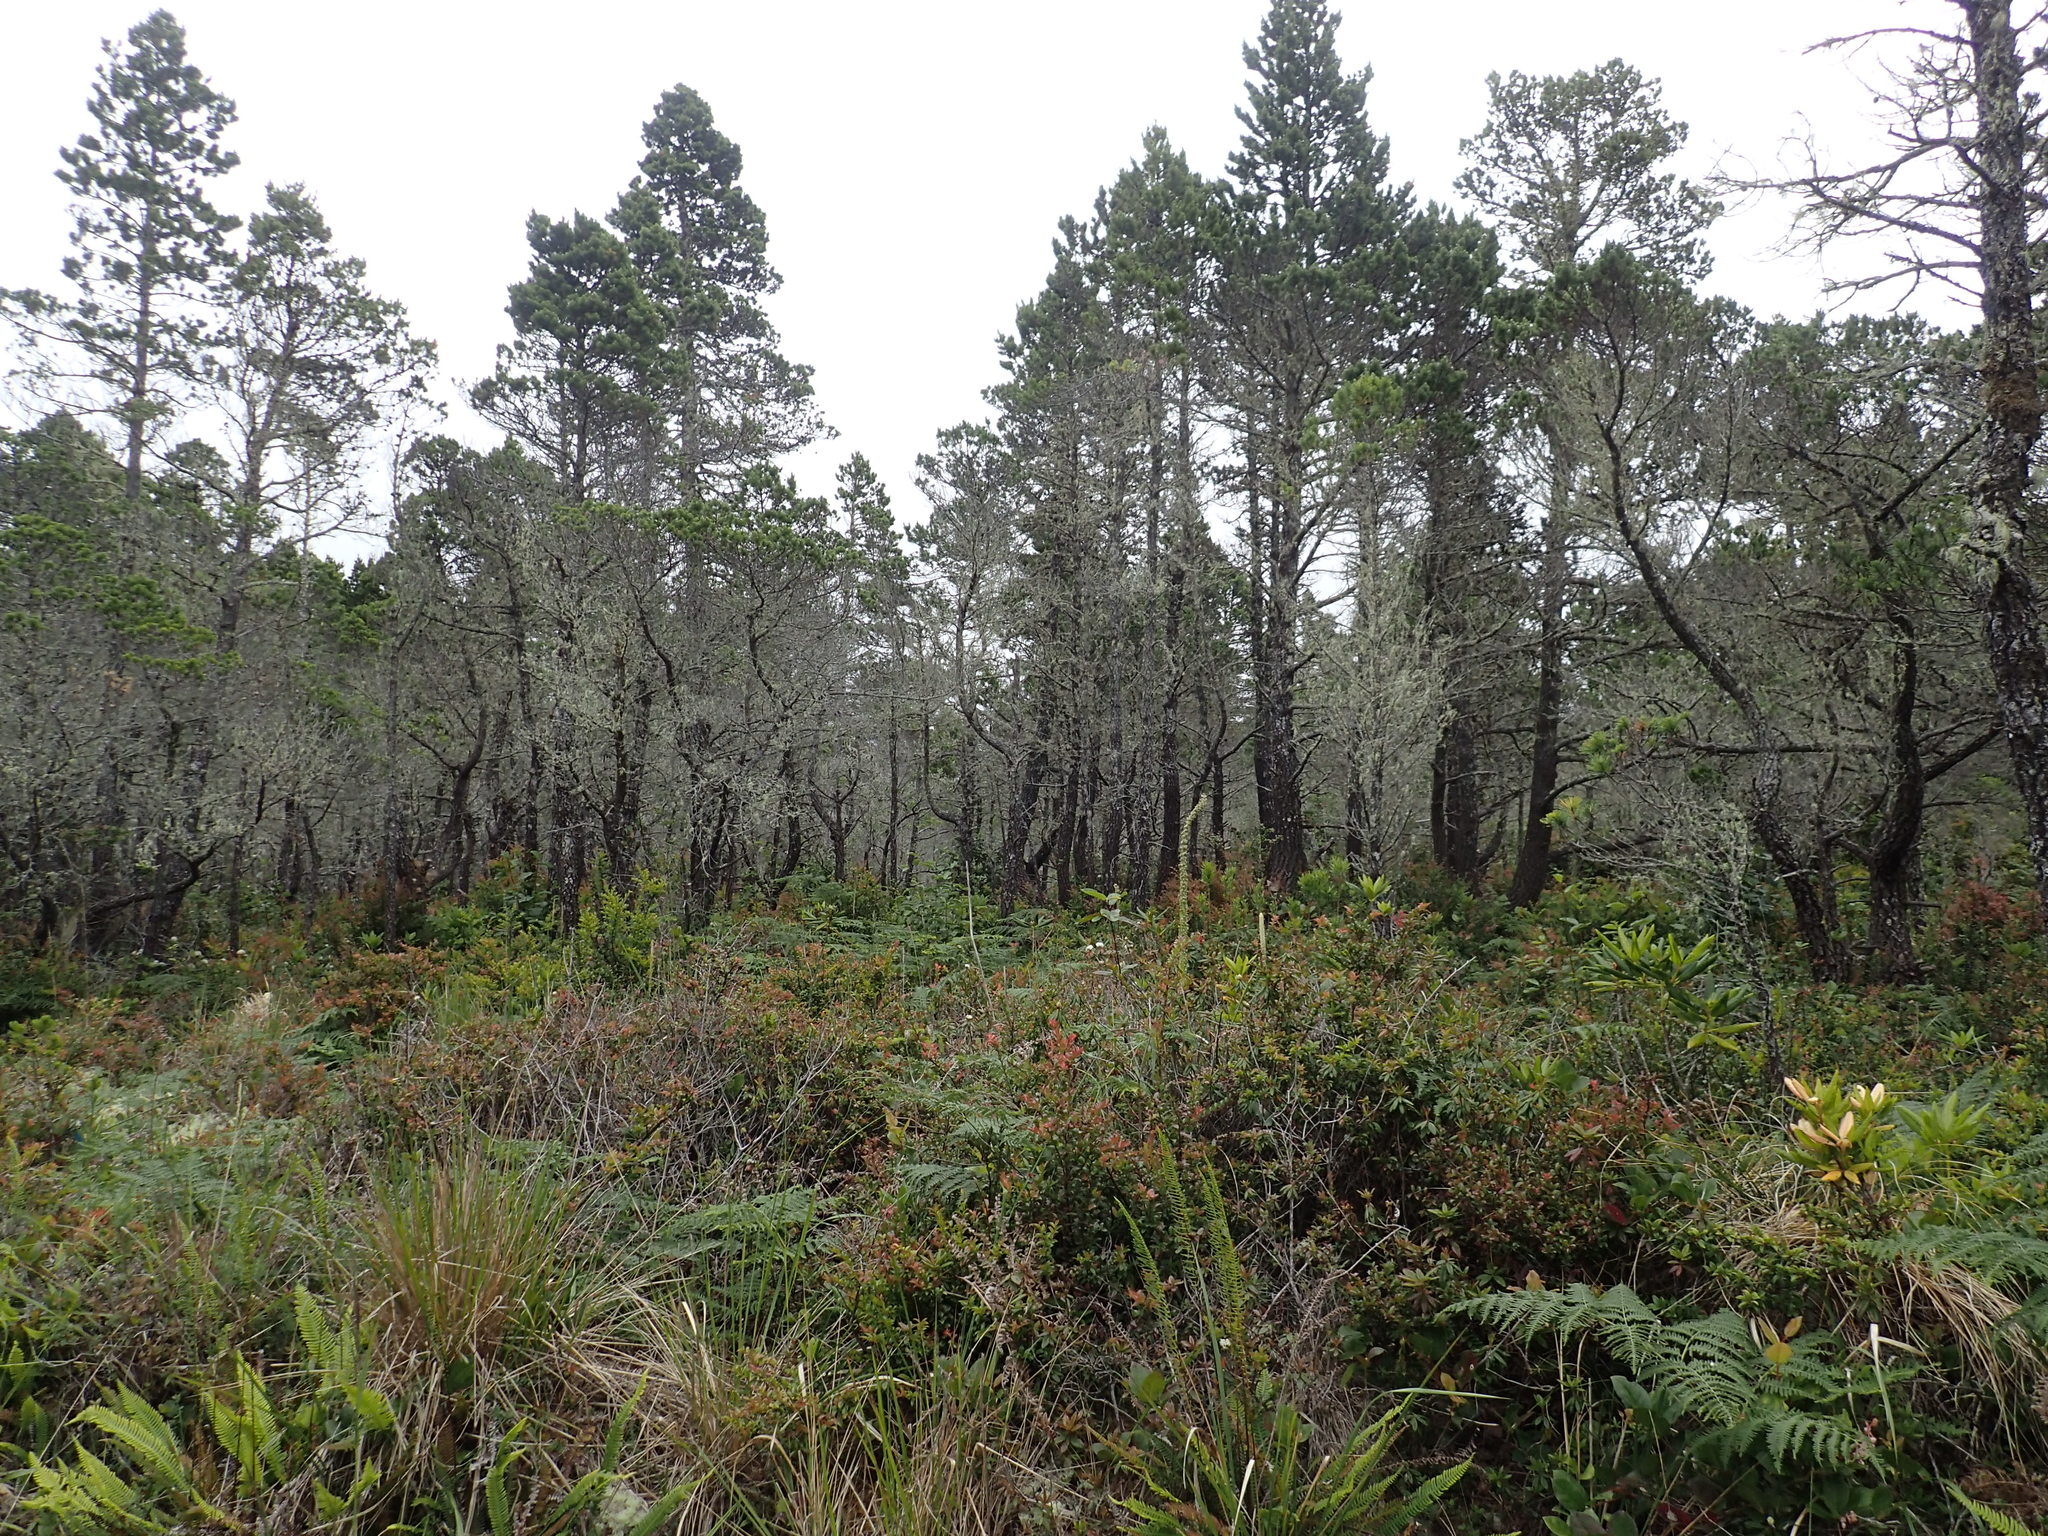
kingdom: Plantae
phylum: Tracheophyta
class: Pinopsida
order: Pinales
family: Pinaceae
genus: Pinus
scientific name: Pinus contorta
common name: Lodgepole pine
